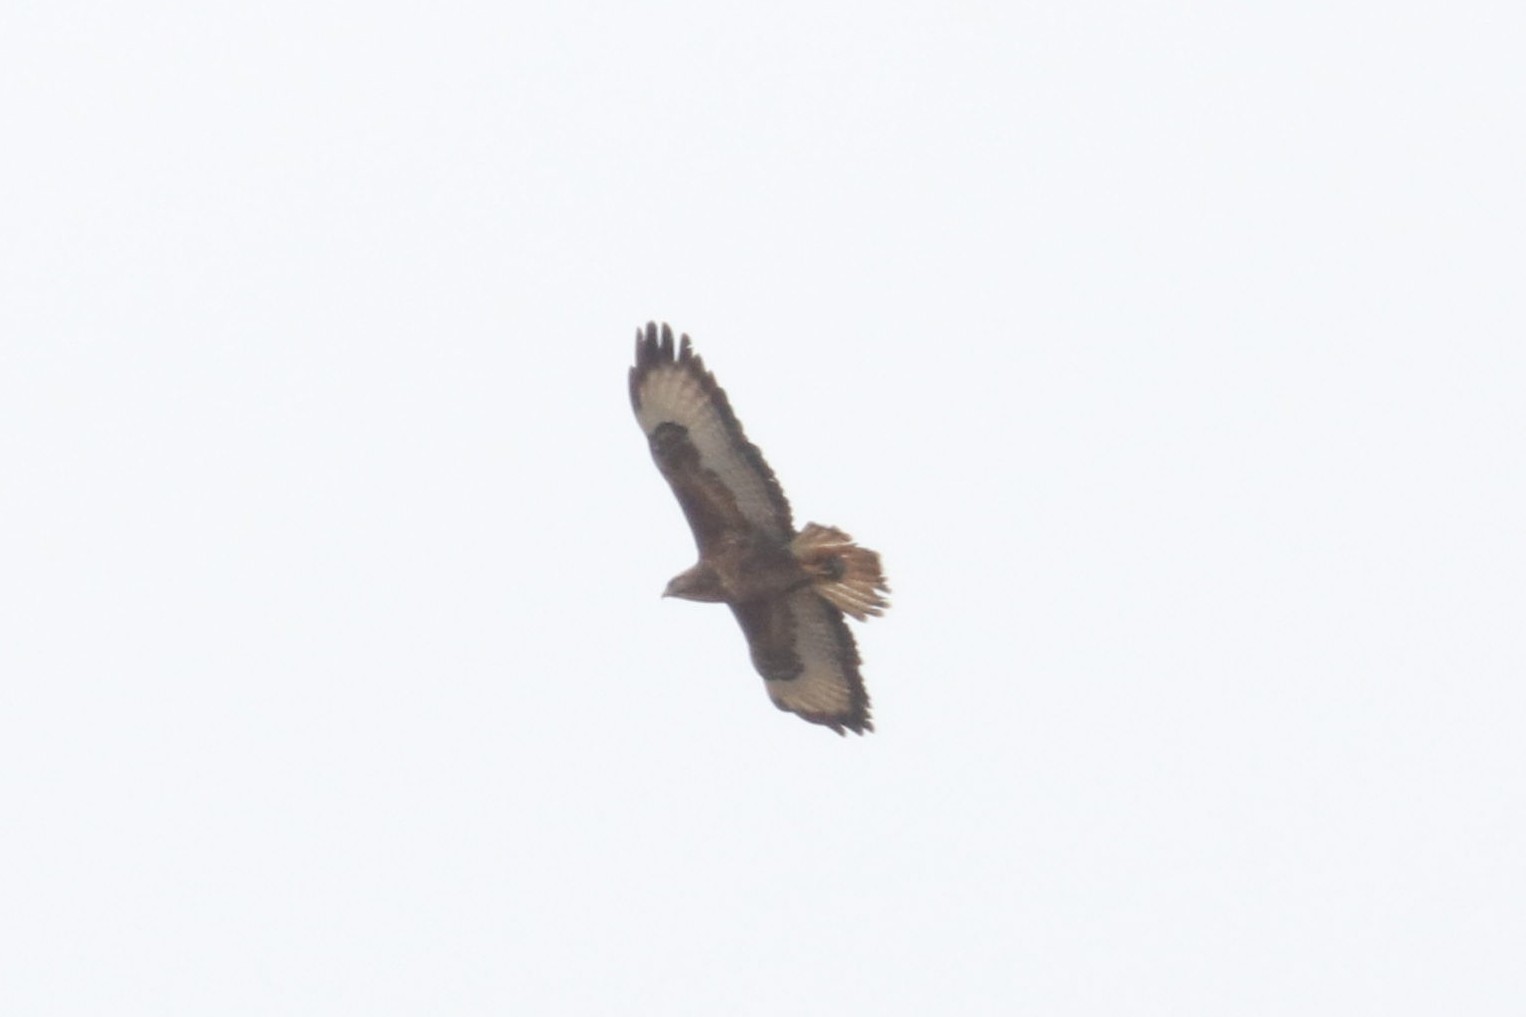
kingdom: Animalia
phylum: Chordata
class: Aves
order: Accipitriformes
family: Accipitridae
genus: Buteo
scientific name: Buteo buteo
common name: Common buzzard
